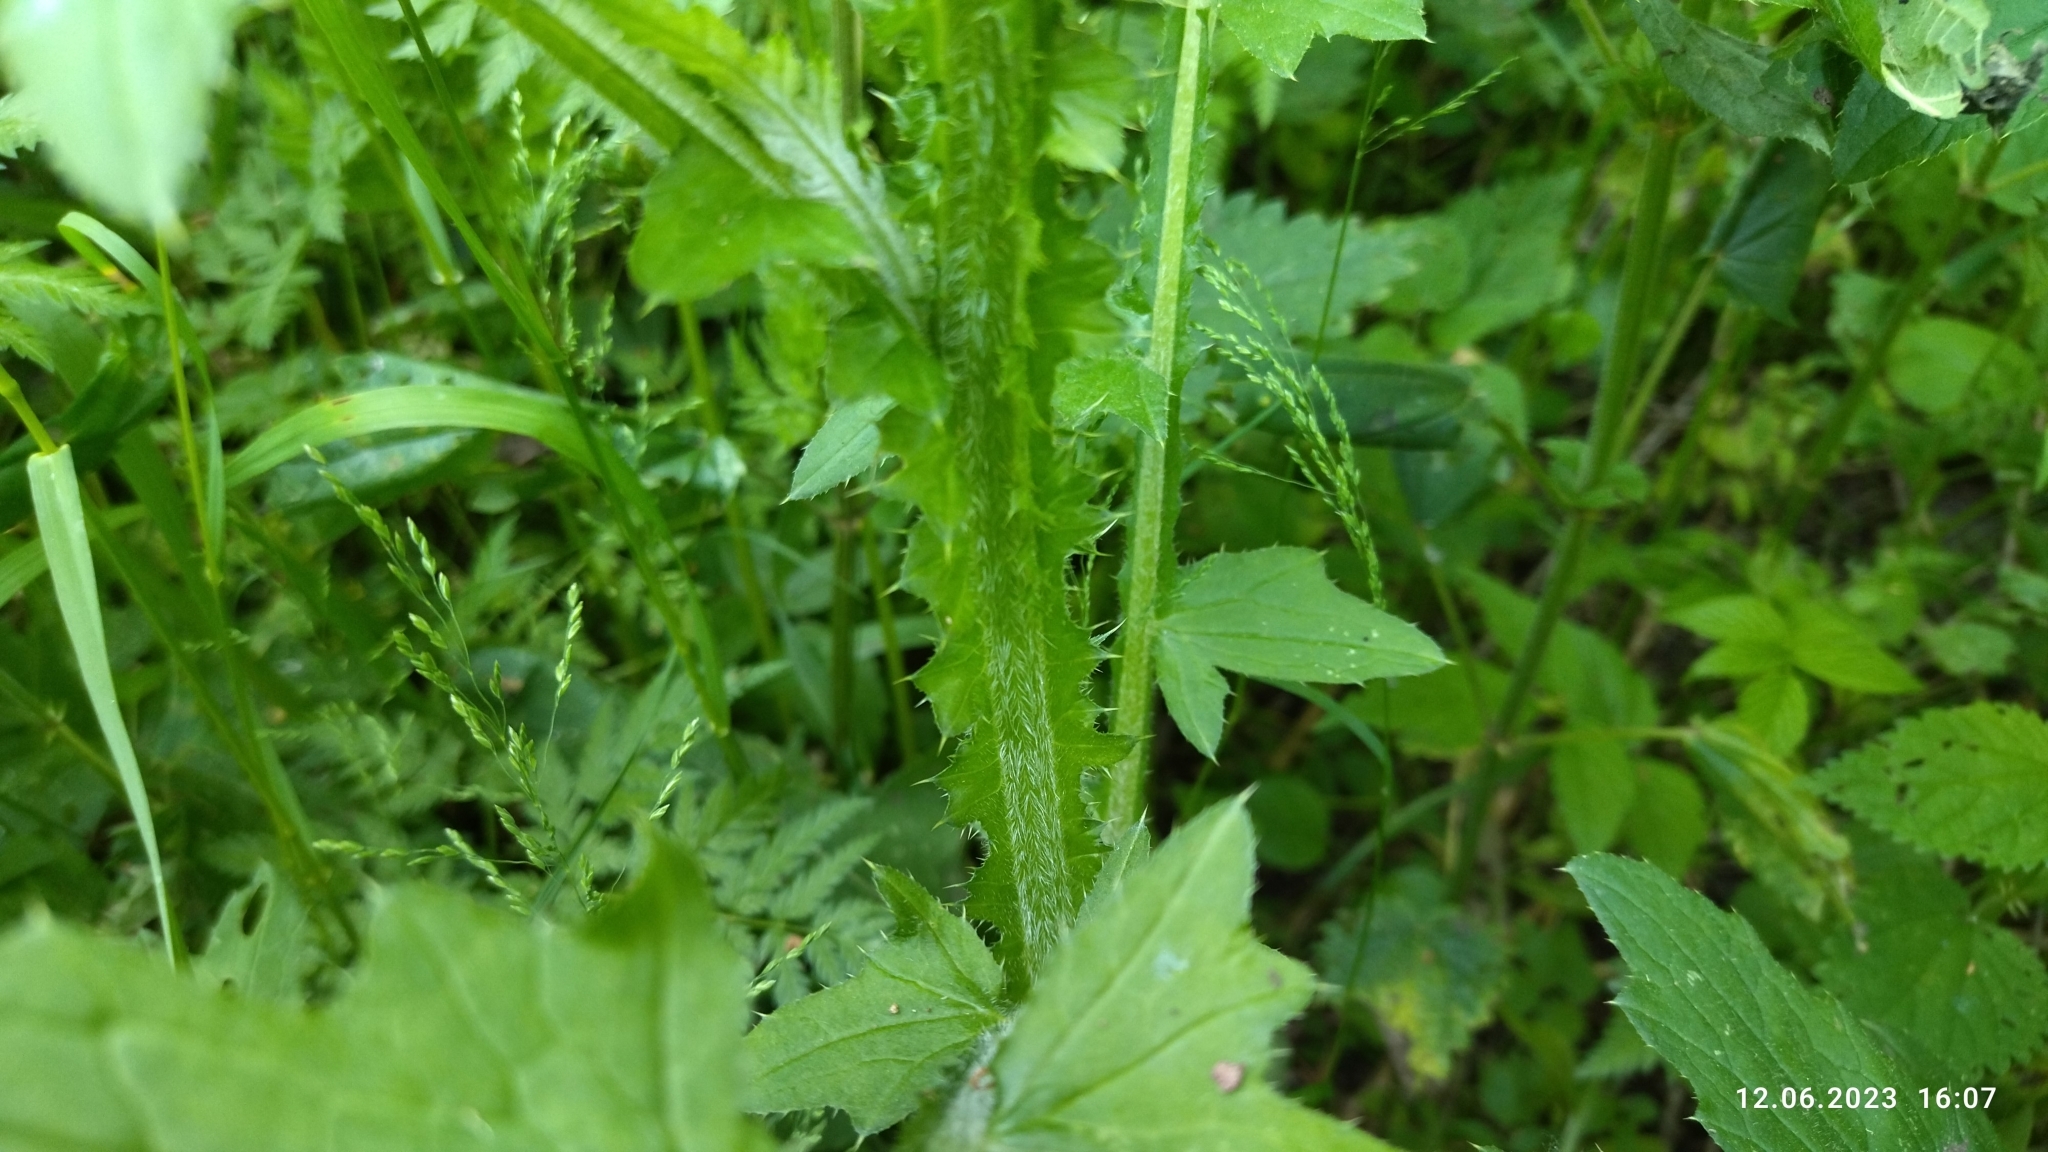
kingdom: Plantae
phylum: Tracheophyta
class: Magnoliopsida
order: Asterales
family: Asteraceae
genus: Carduus
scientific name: Carduus crispus
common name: Welted thistle
